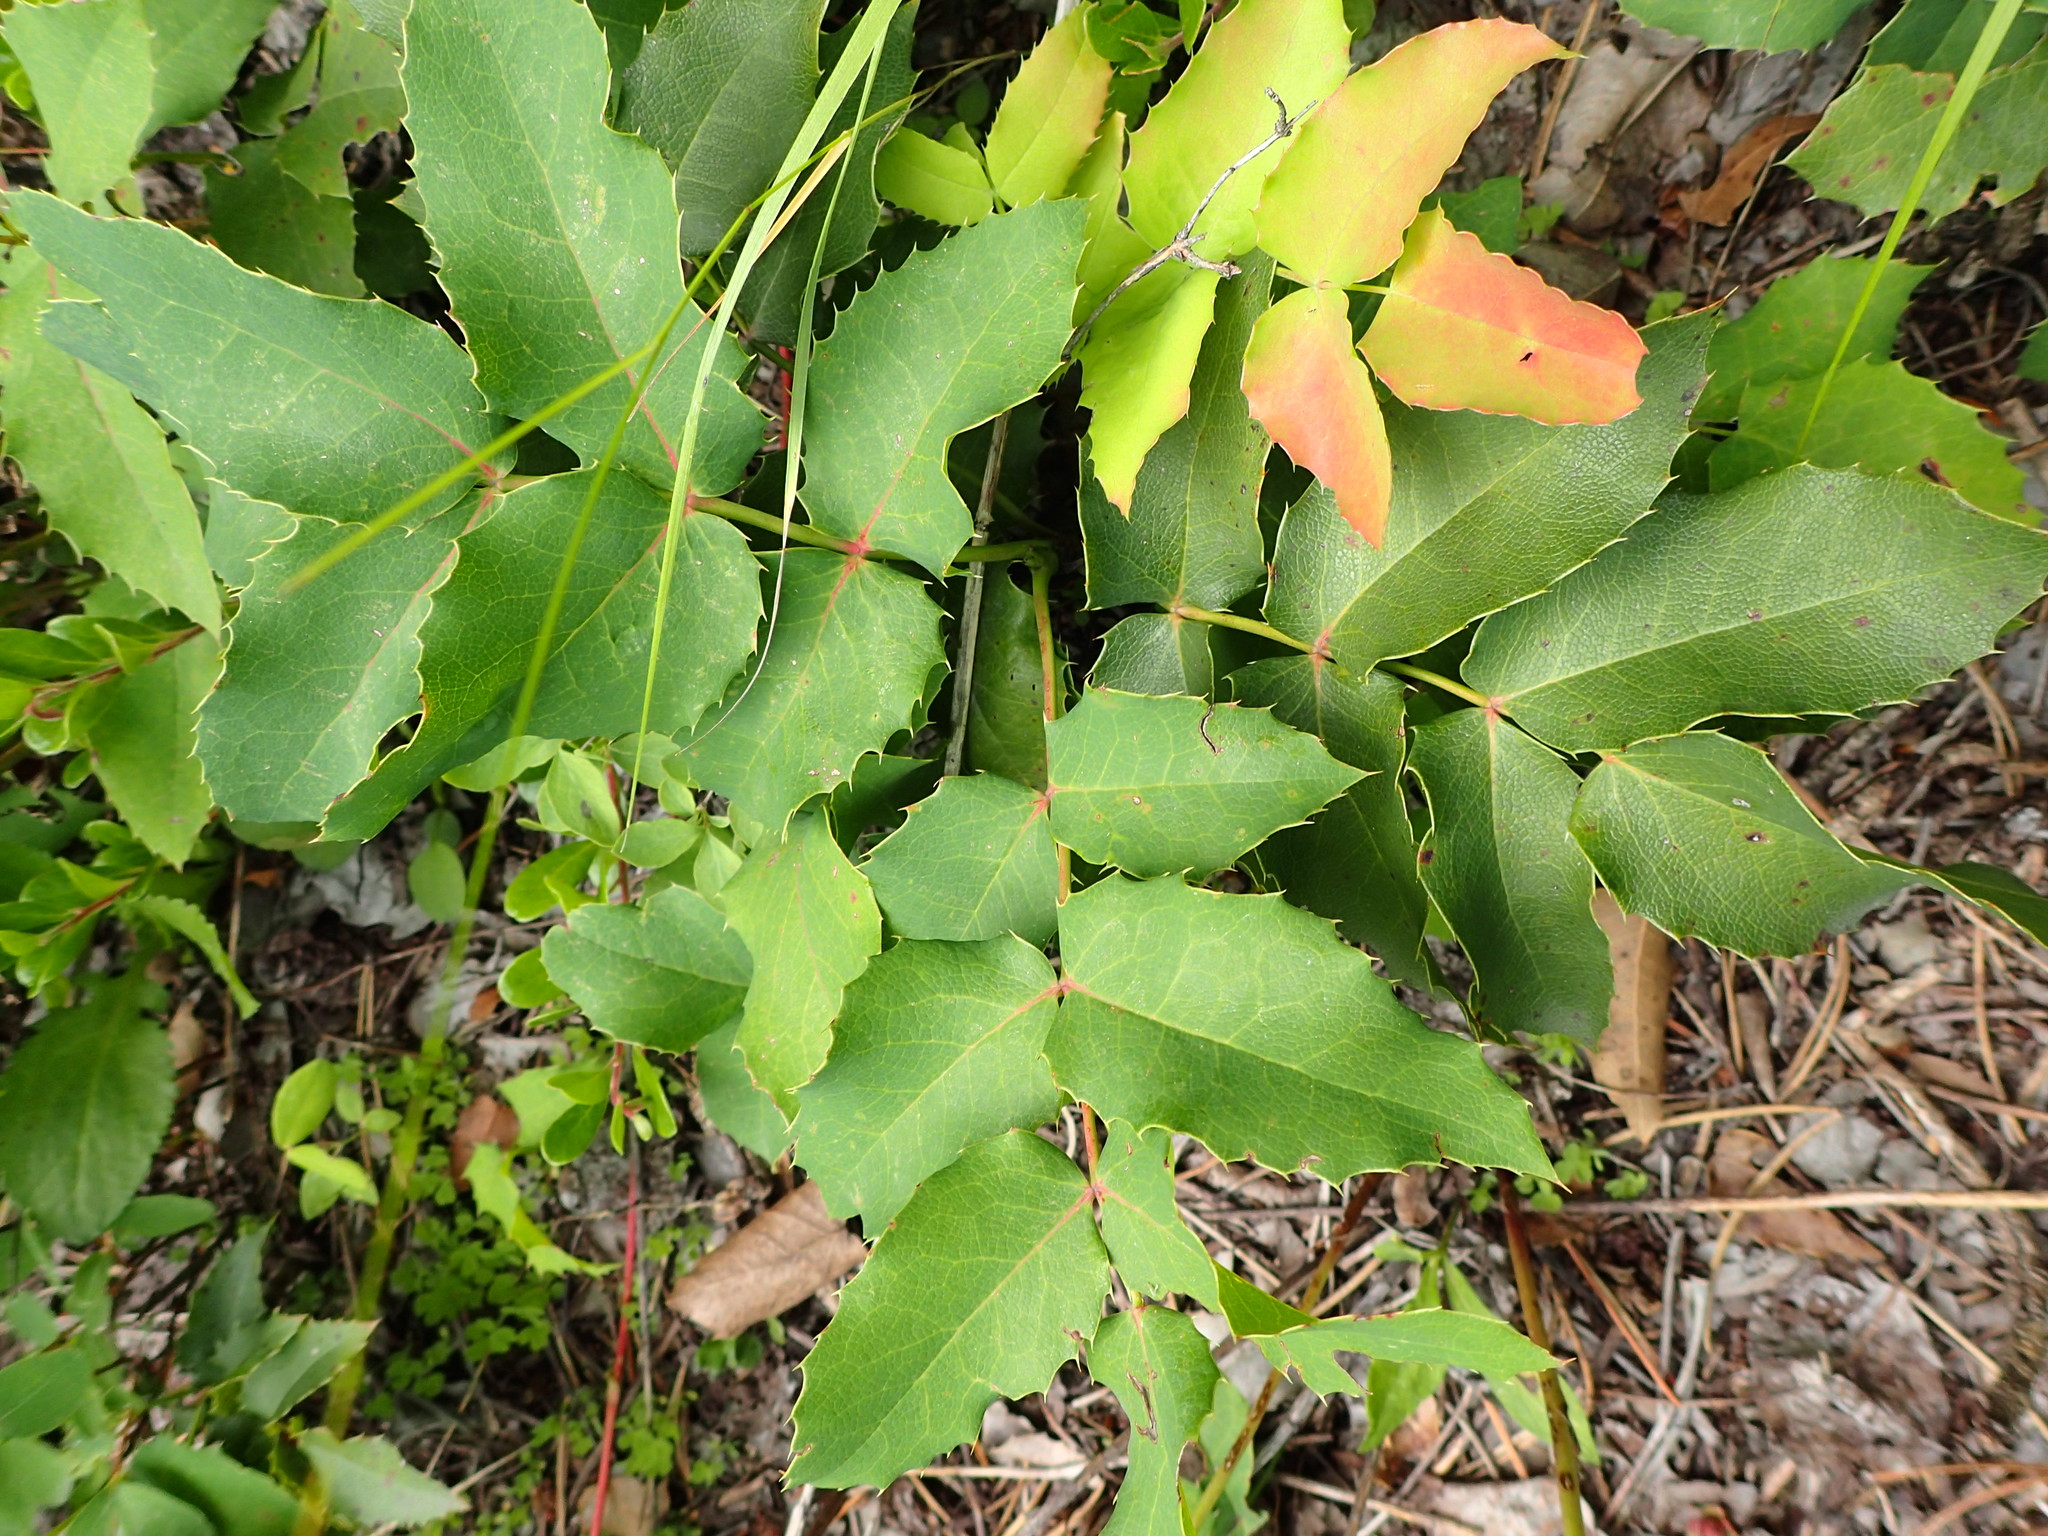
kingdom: Plantae
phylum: Tracheophyta
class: Magnoliopsida
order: Ranunculales
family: Berberidaceae
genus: Mahonia
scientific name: Mahonia repens
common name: Creeping oregon-grape
